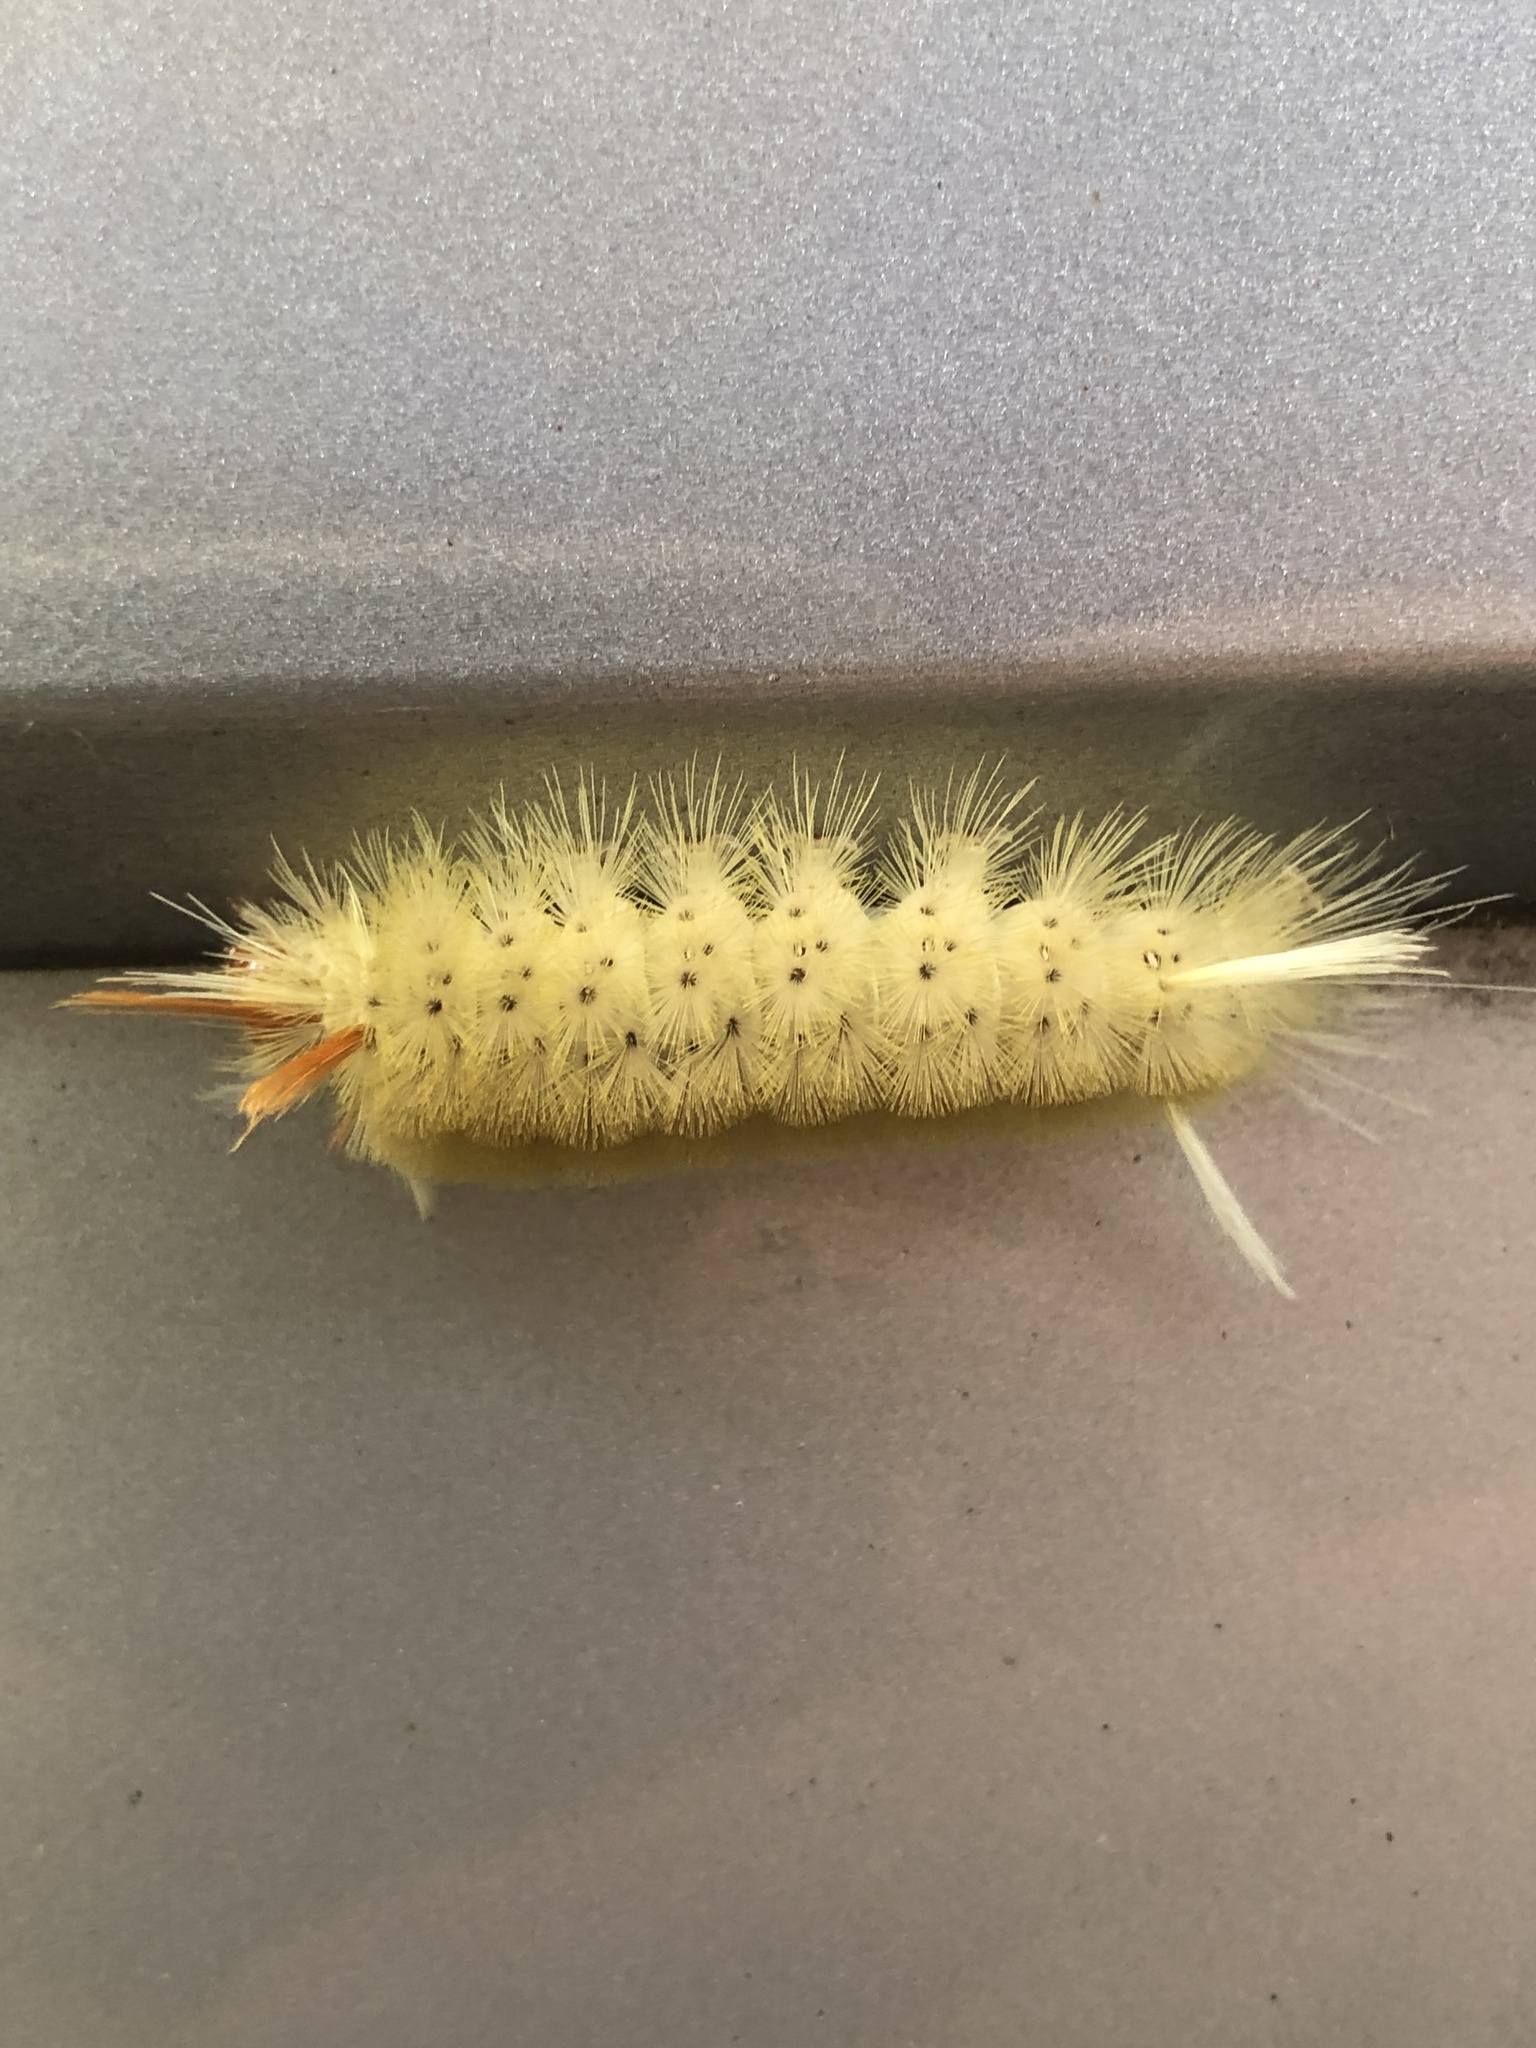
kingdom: Animalia
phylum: Arthropoda
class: Insecta
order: Lepidoptera
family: Erebidae
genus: Halysidota
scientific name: Halysidota harrisii
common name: Sycamore tussock moth
